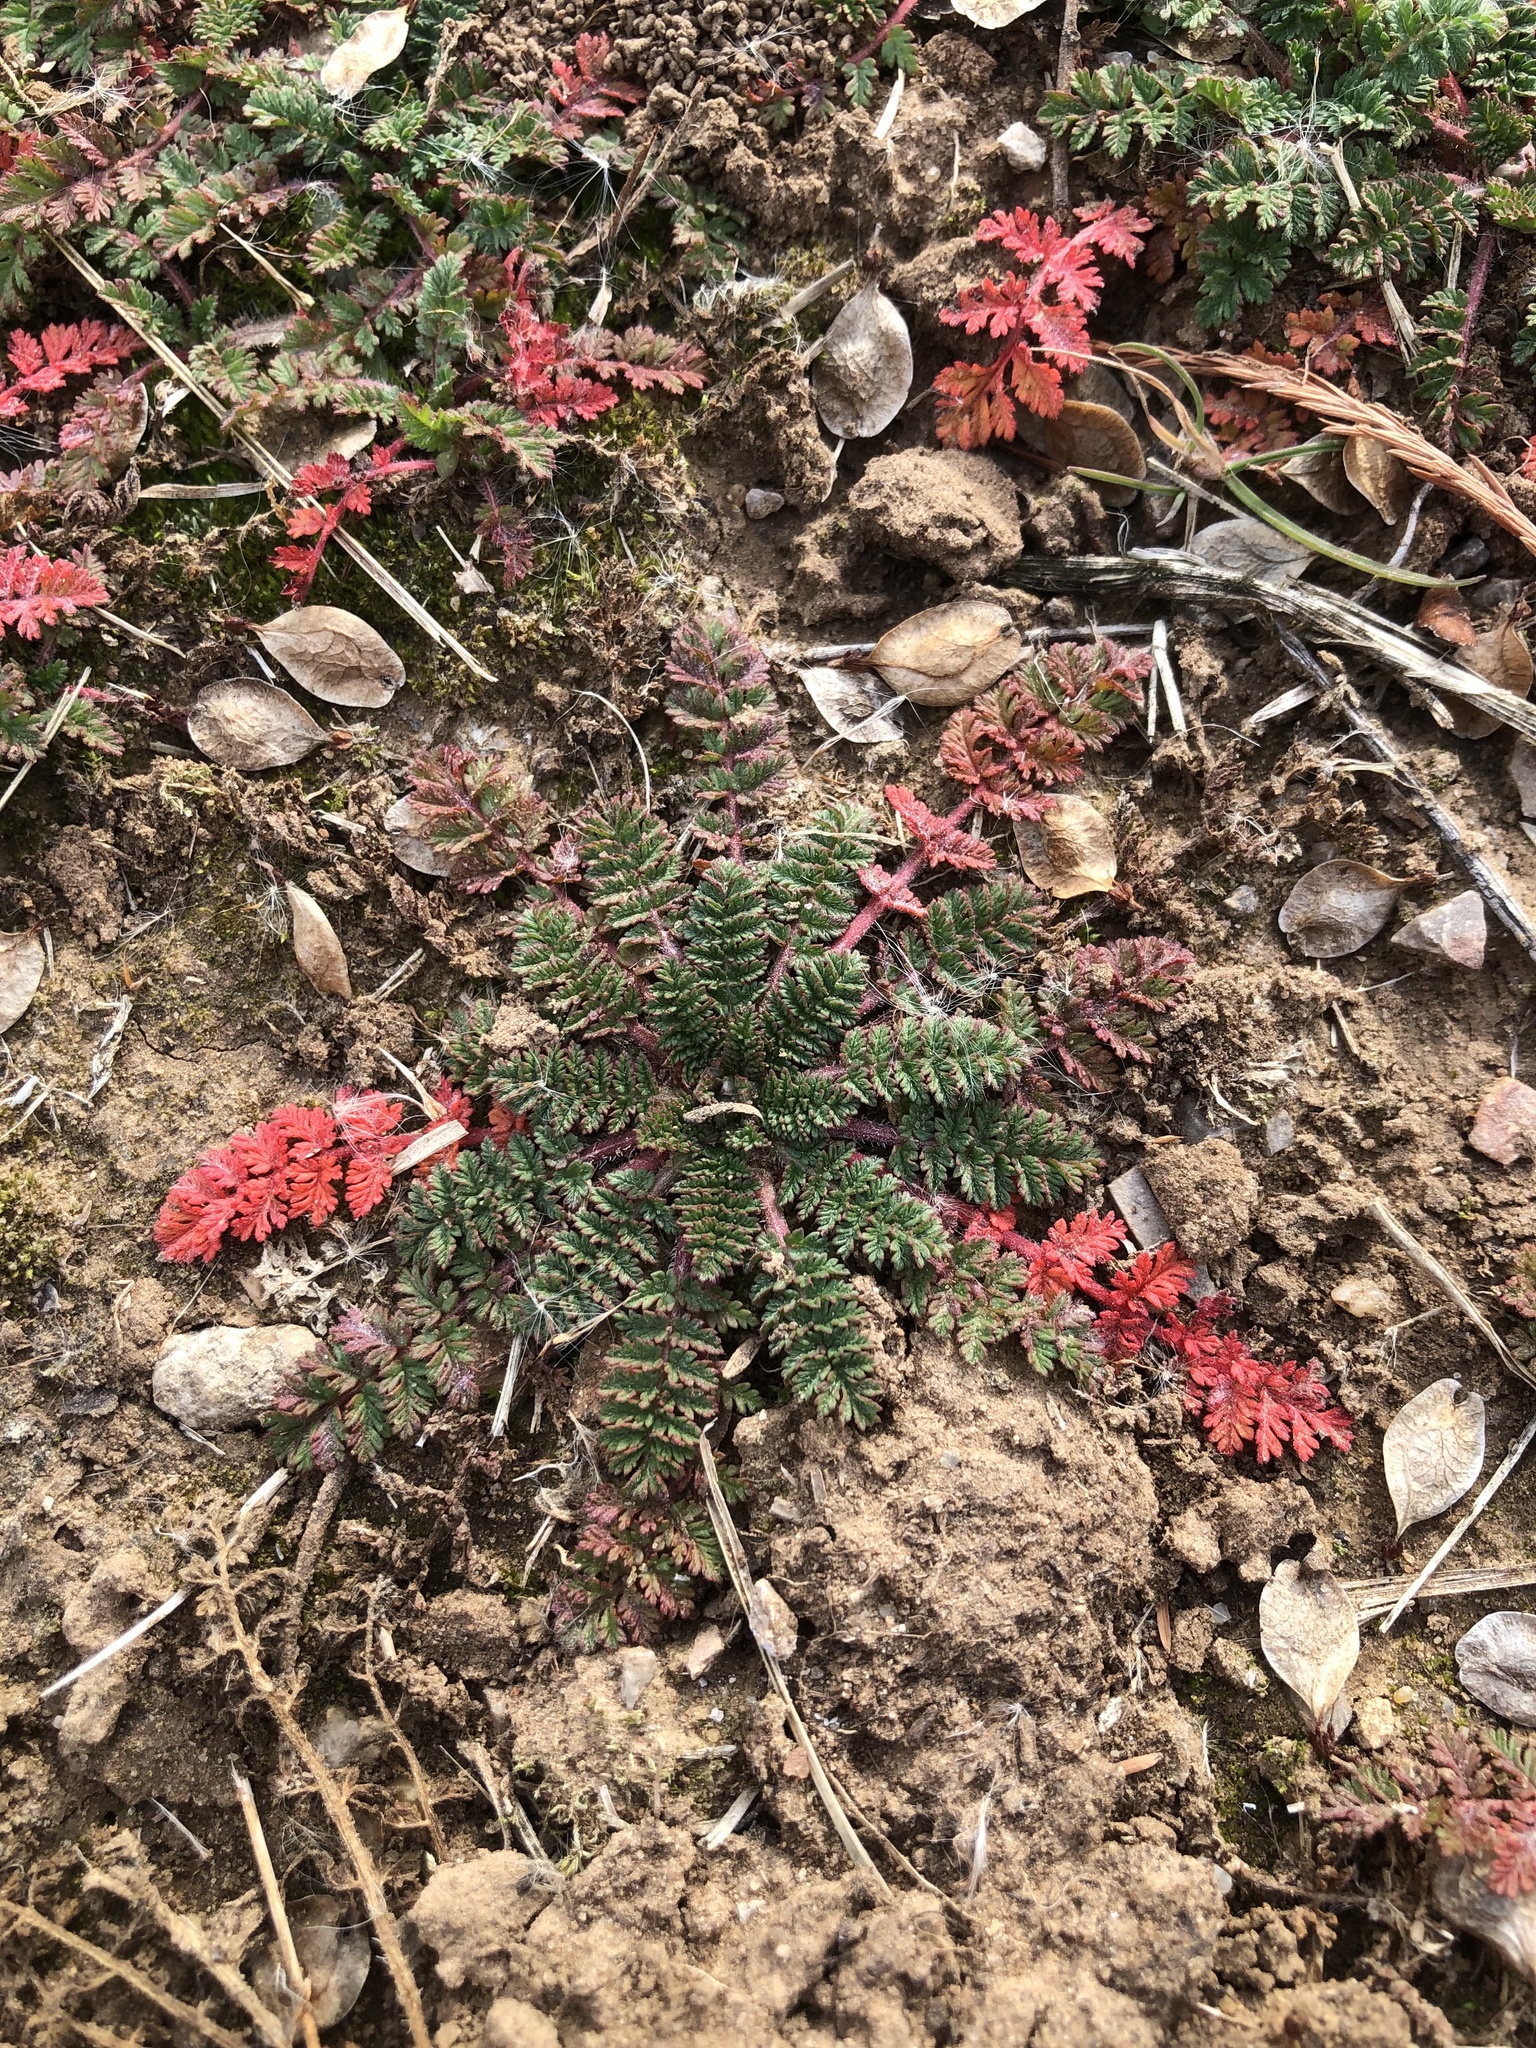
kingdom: Plantae
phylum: Tracheophyta
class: Magnoliopsida
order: Geraniales
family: Geraniaceae
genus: Erodium
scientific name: Erodium cicutarium
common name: Common stork's-bill
